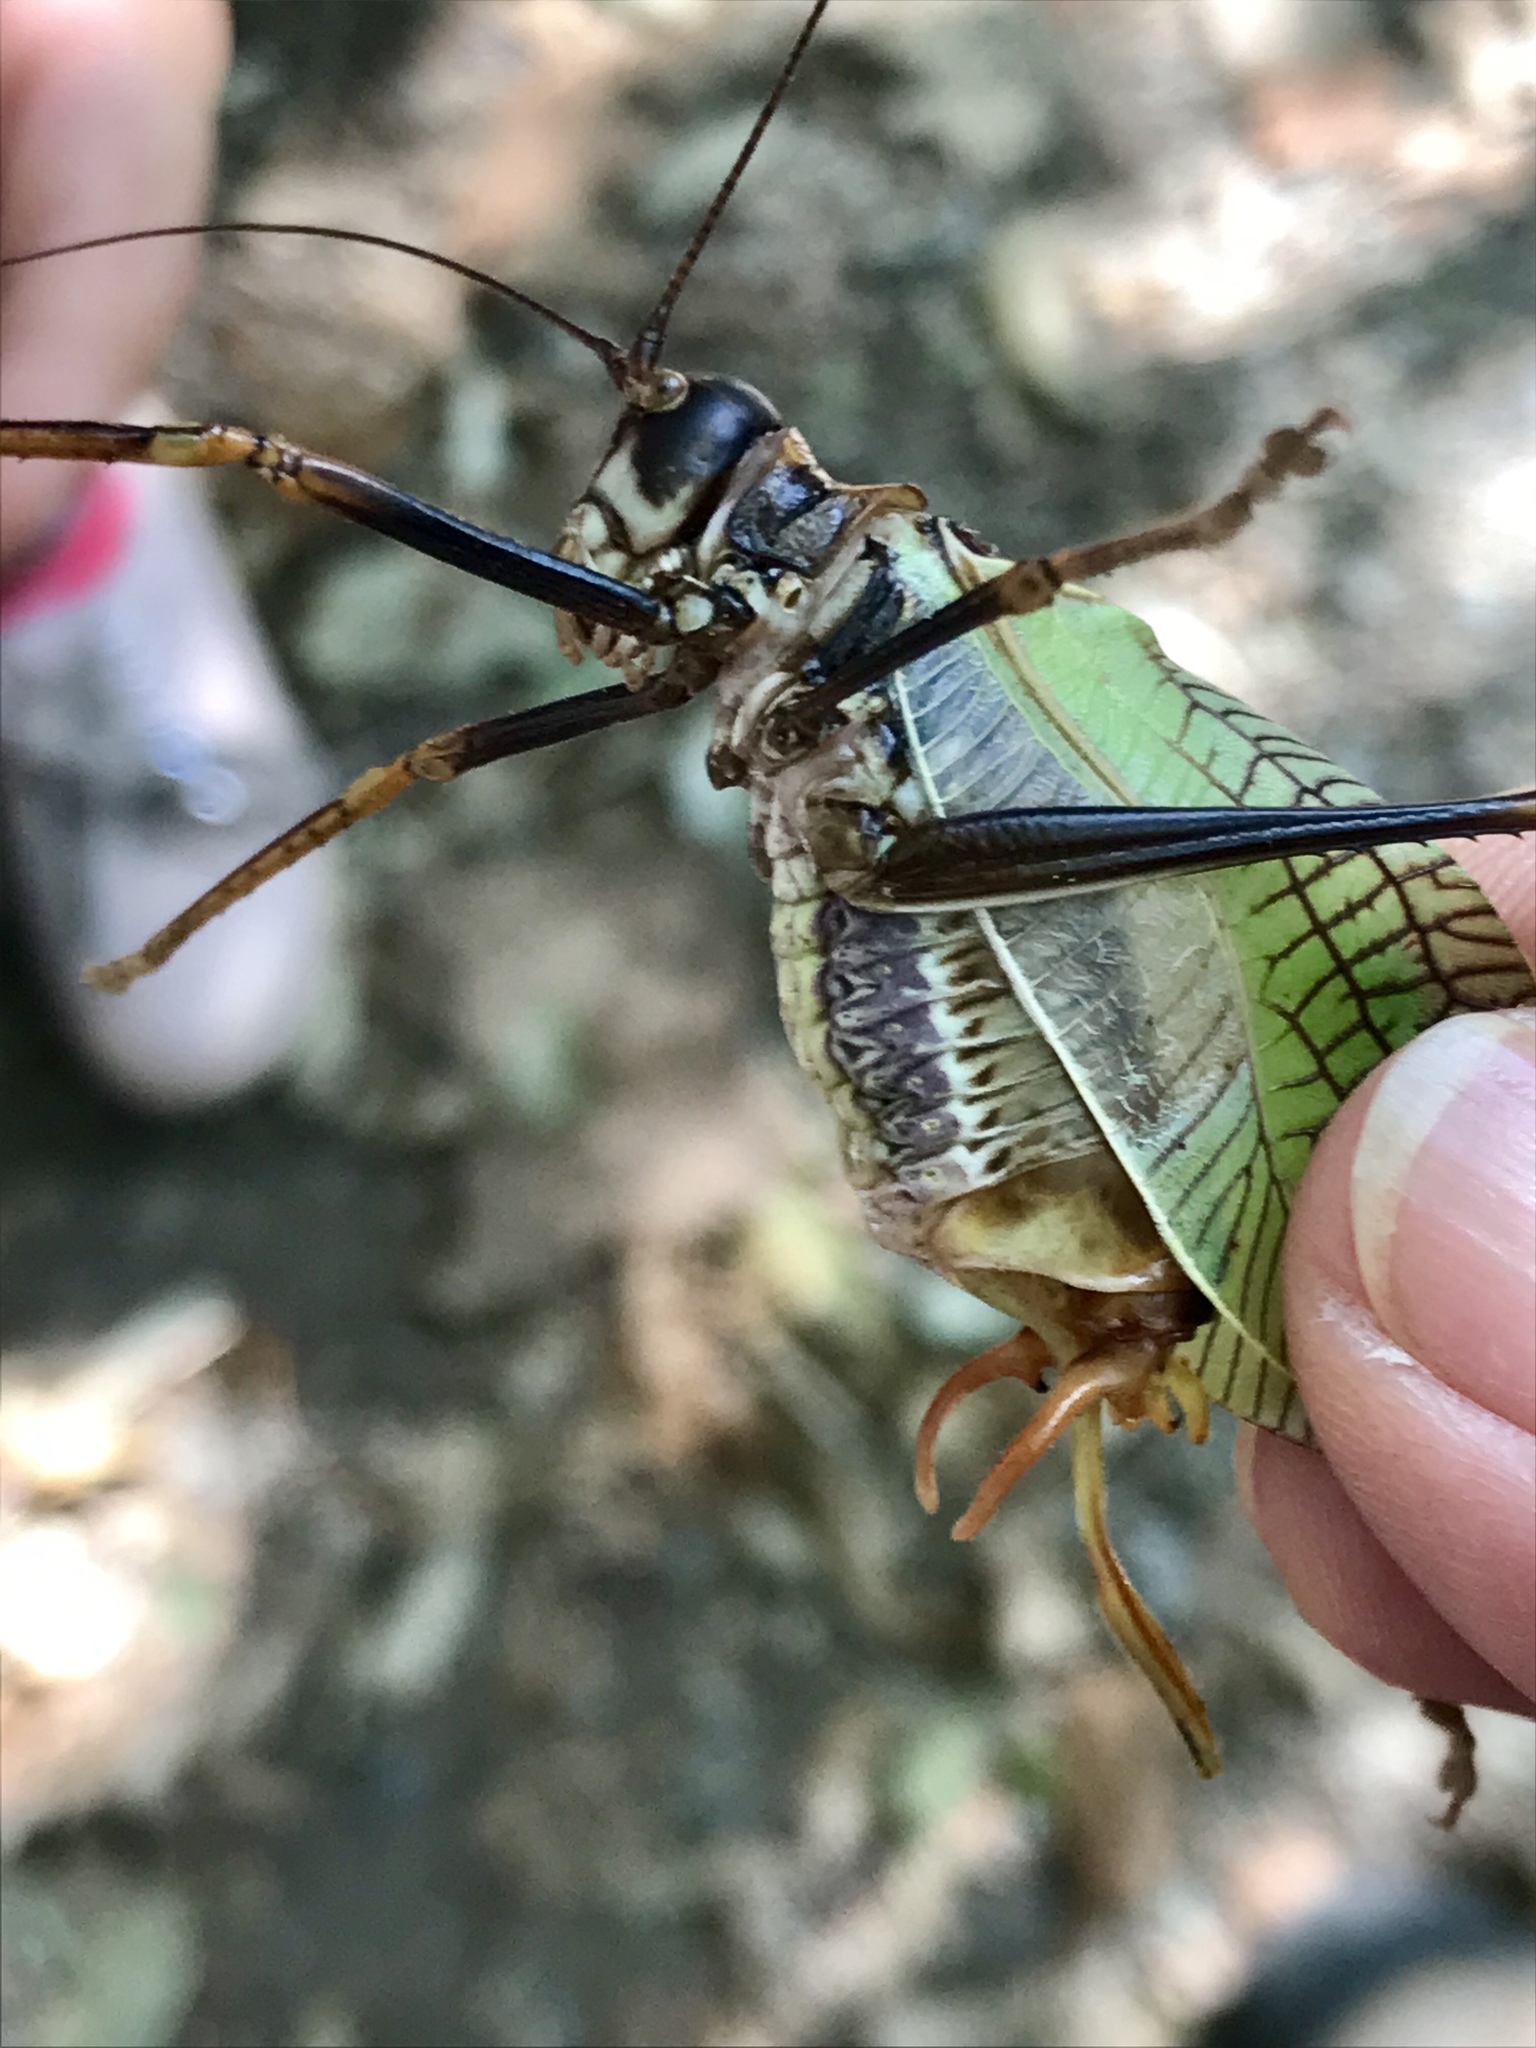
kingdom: Animalia
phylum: Arthropoda
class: Insecta
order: Orthoptera
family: Tettigoniidae
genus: Pterophylla
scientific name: Pterophylla beltrani
